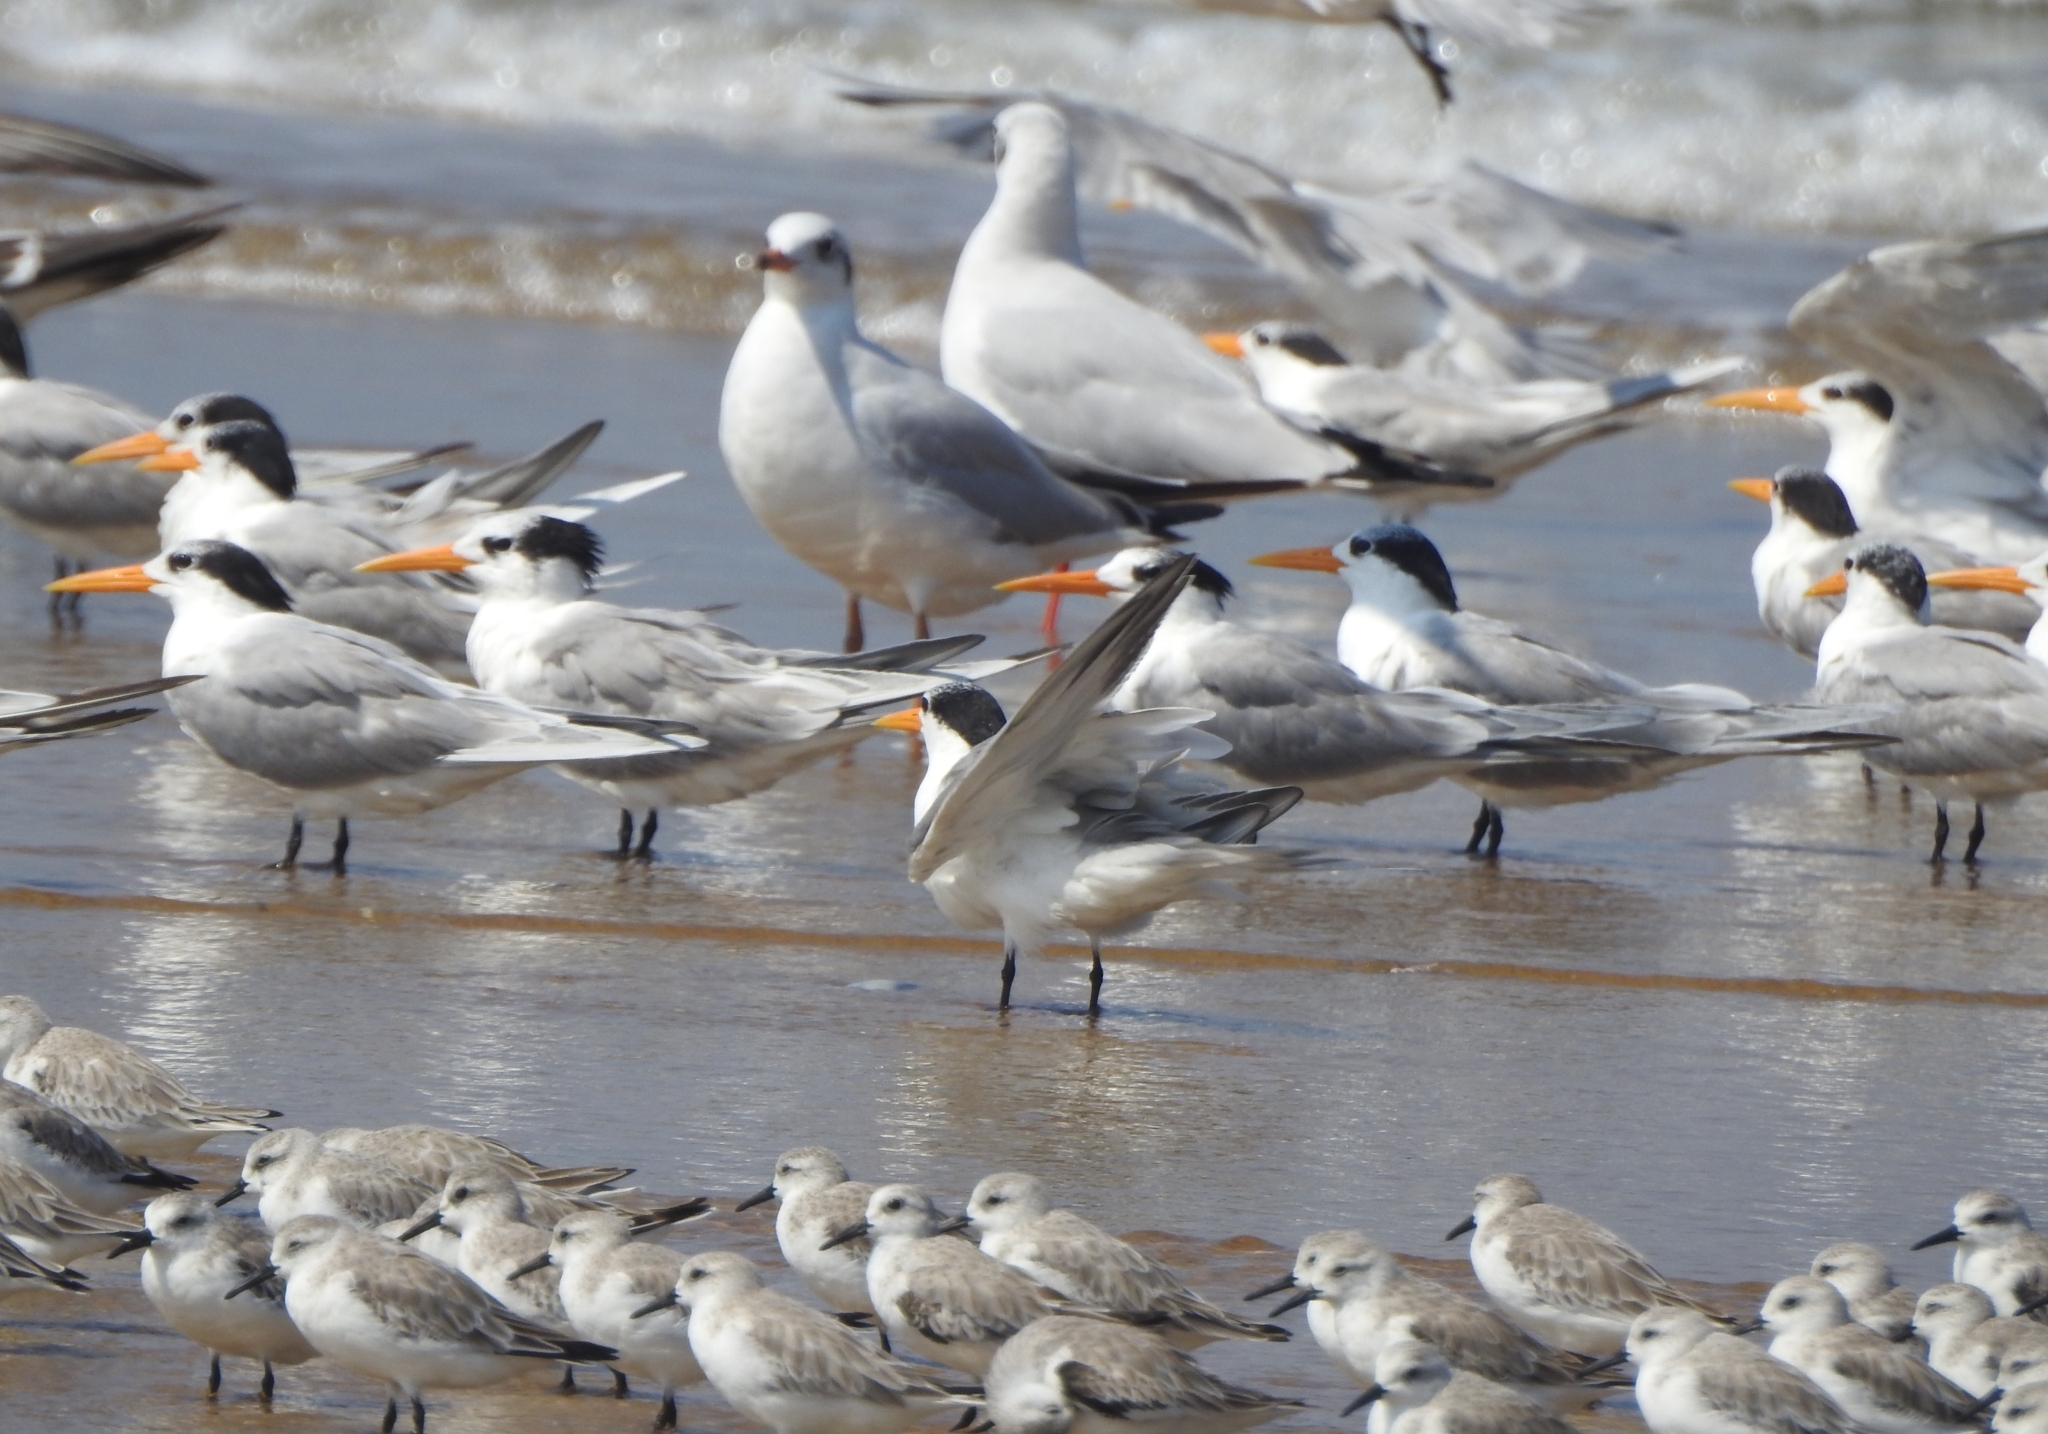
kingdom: Animalia
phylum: Chordata
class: Aves
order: Charadriiformes
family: Laridae
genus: Thalasseus
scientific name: Thalasseus bengalensis
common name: Lesser crested tern
